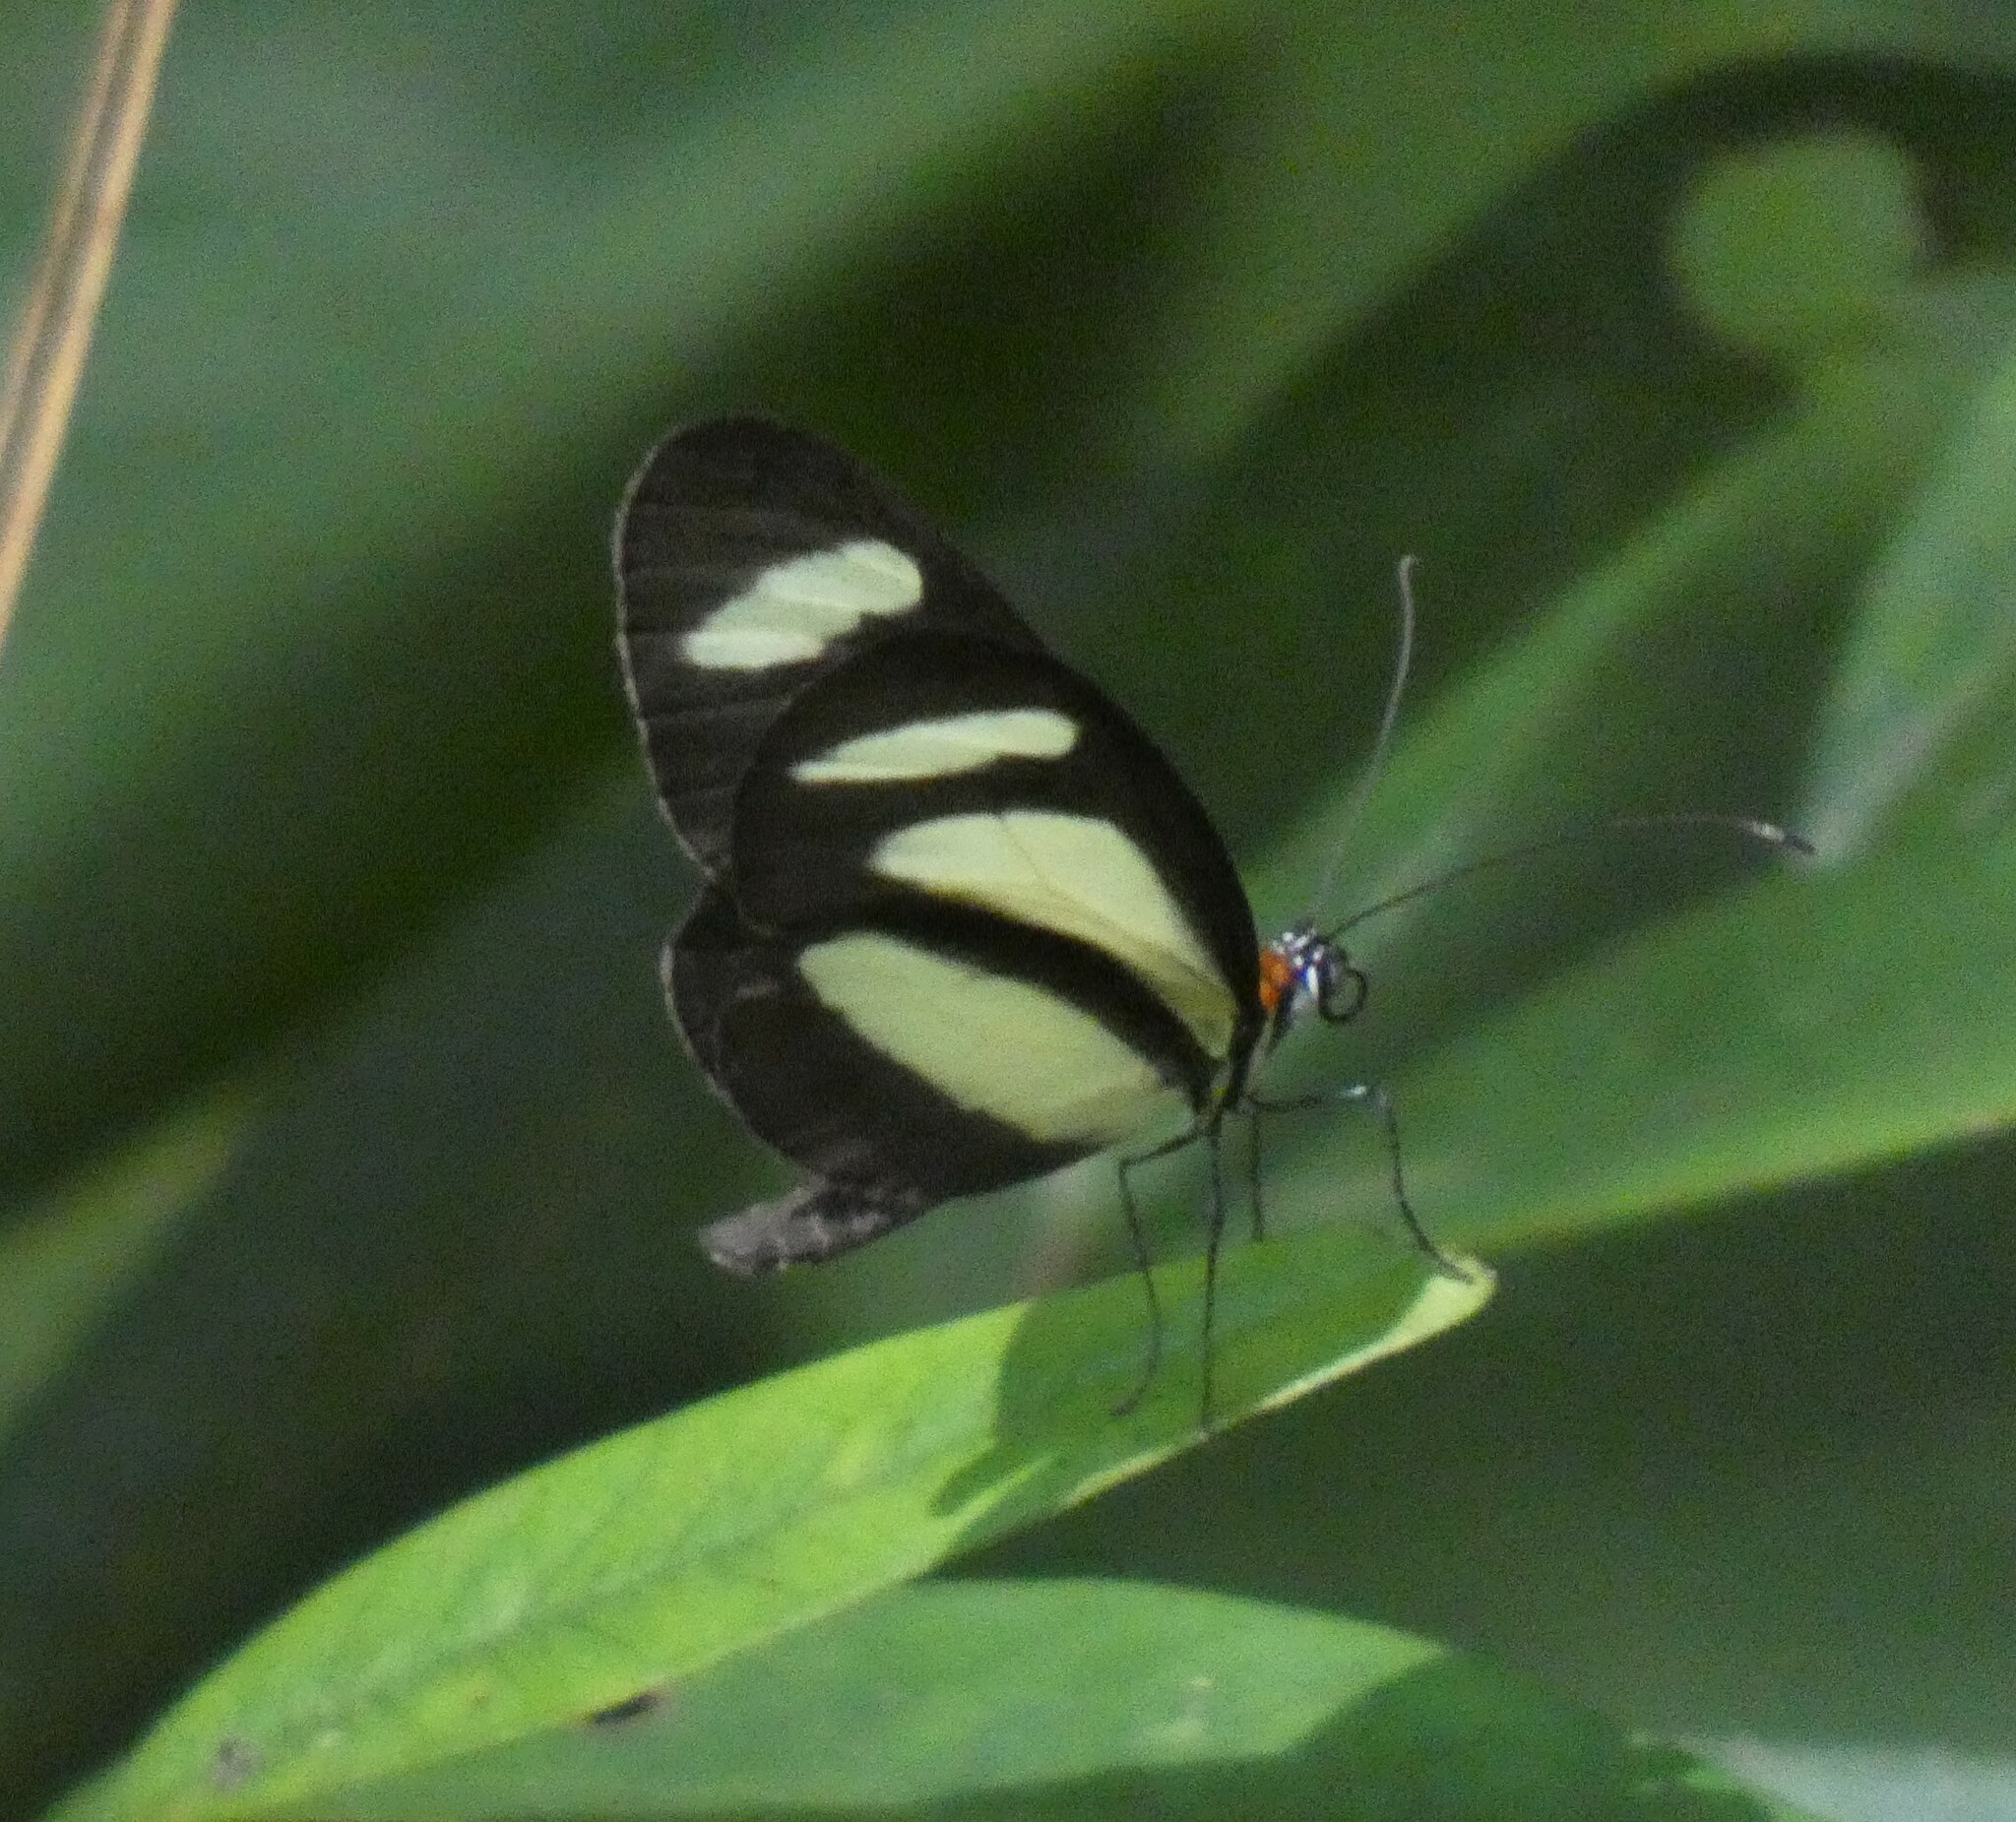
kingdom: Animalia
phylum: Arthropoda
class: Insecta
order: Lepidoptera
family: Nymphalidae
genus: Aeria
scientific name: Aeria olena
